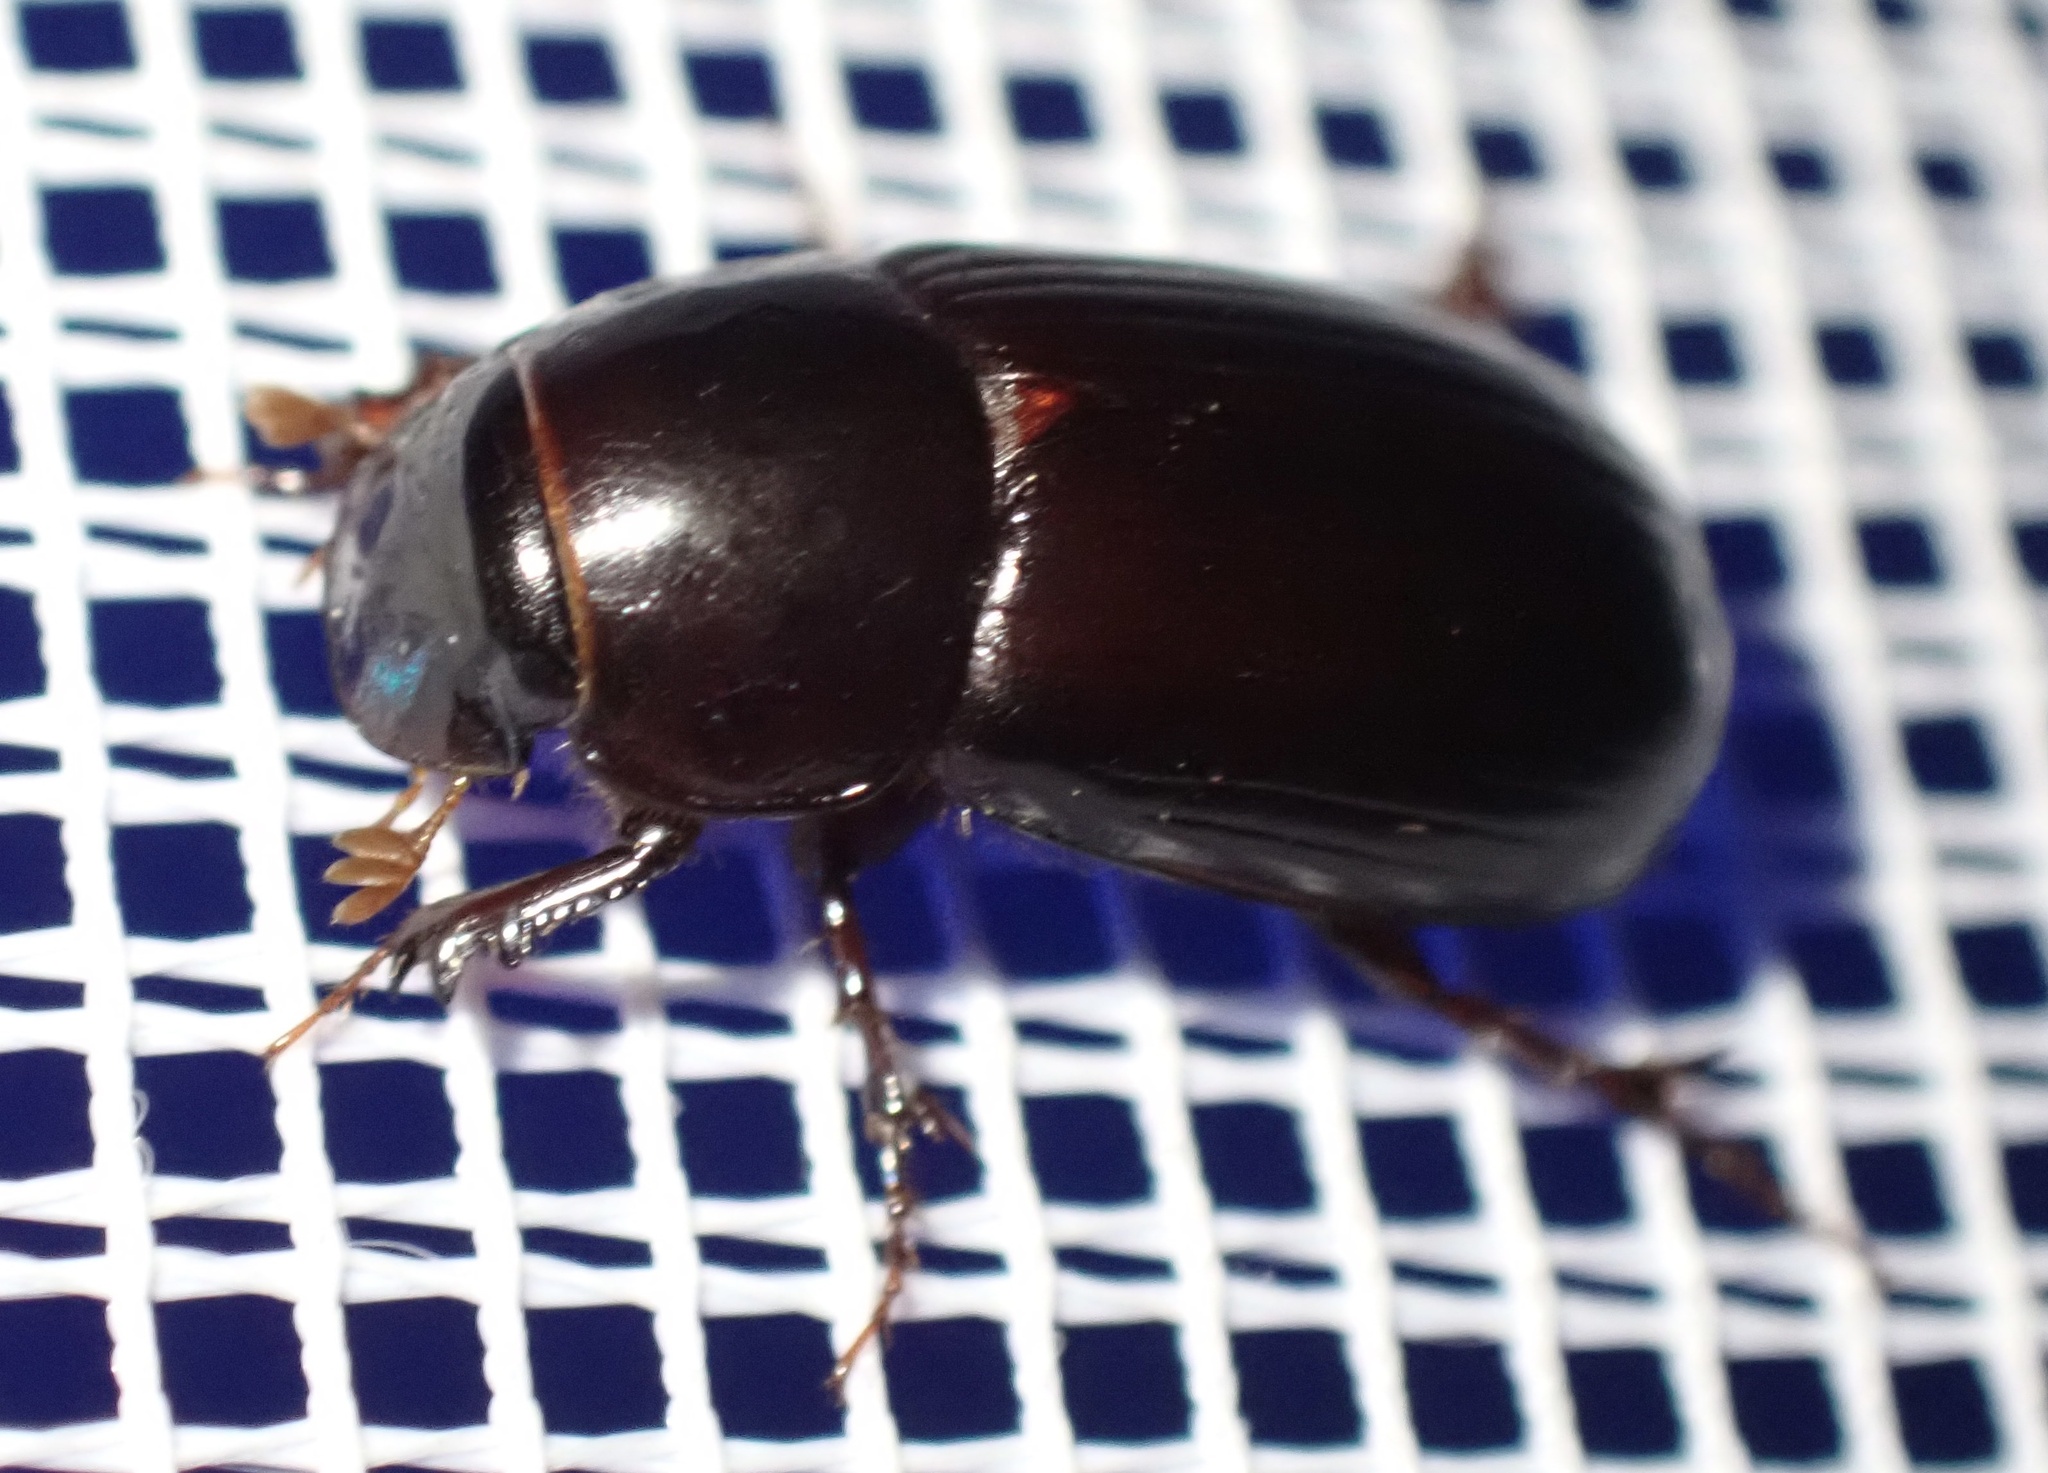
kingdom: Animalia
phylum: Arthropoda
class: Insecta
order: Coleoptera
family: Scarabaeidae
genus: Acrossus
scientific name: Acrossus rufipes
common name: Night-flying dung beetle
